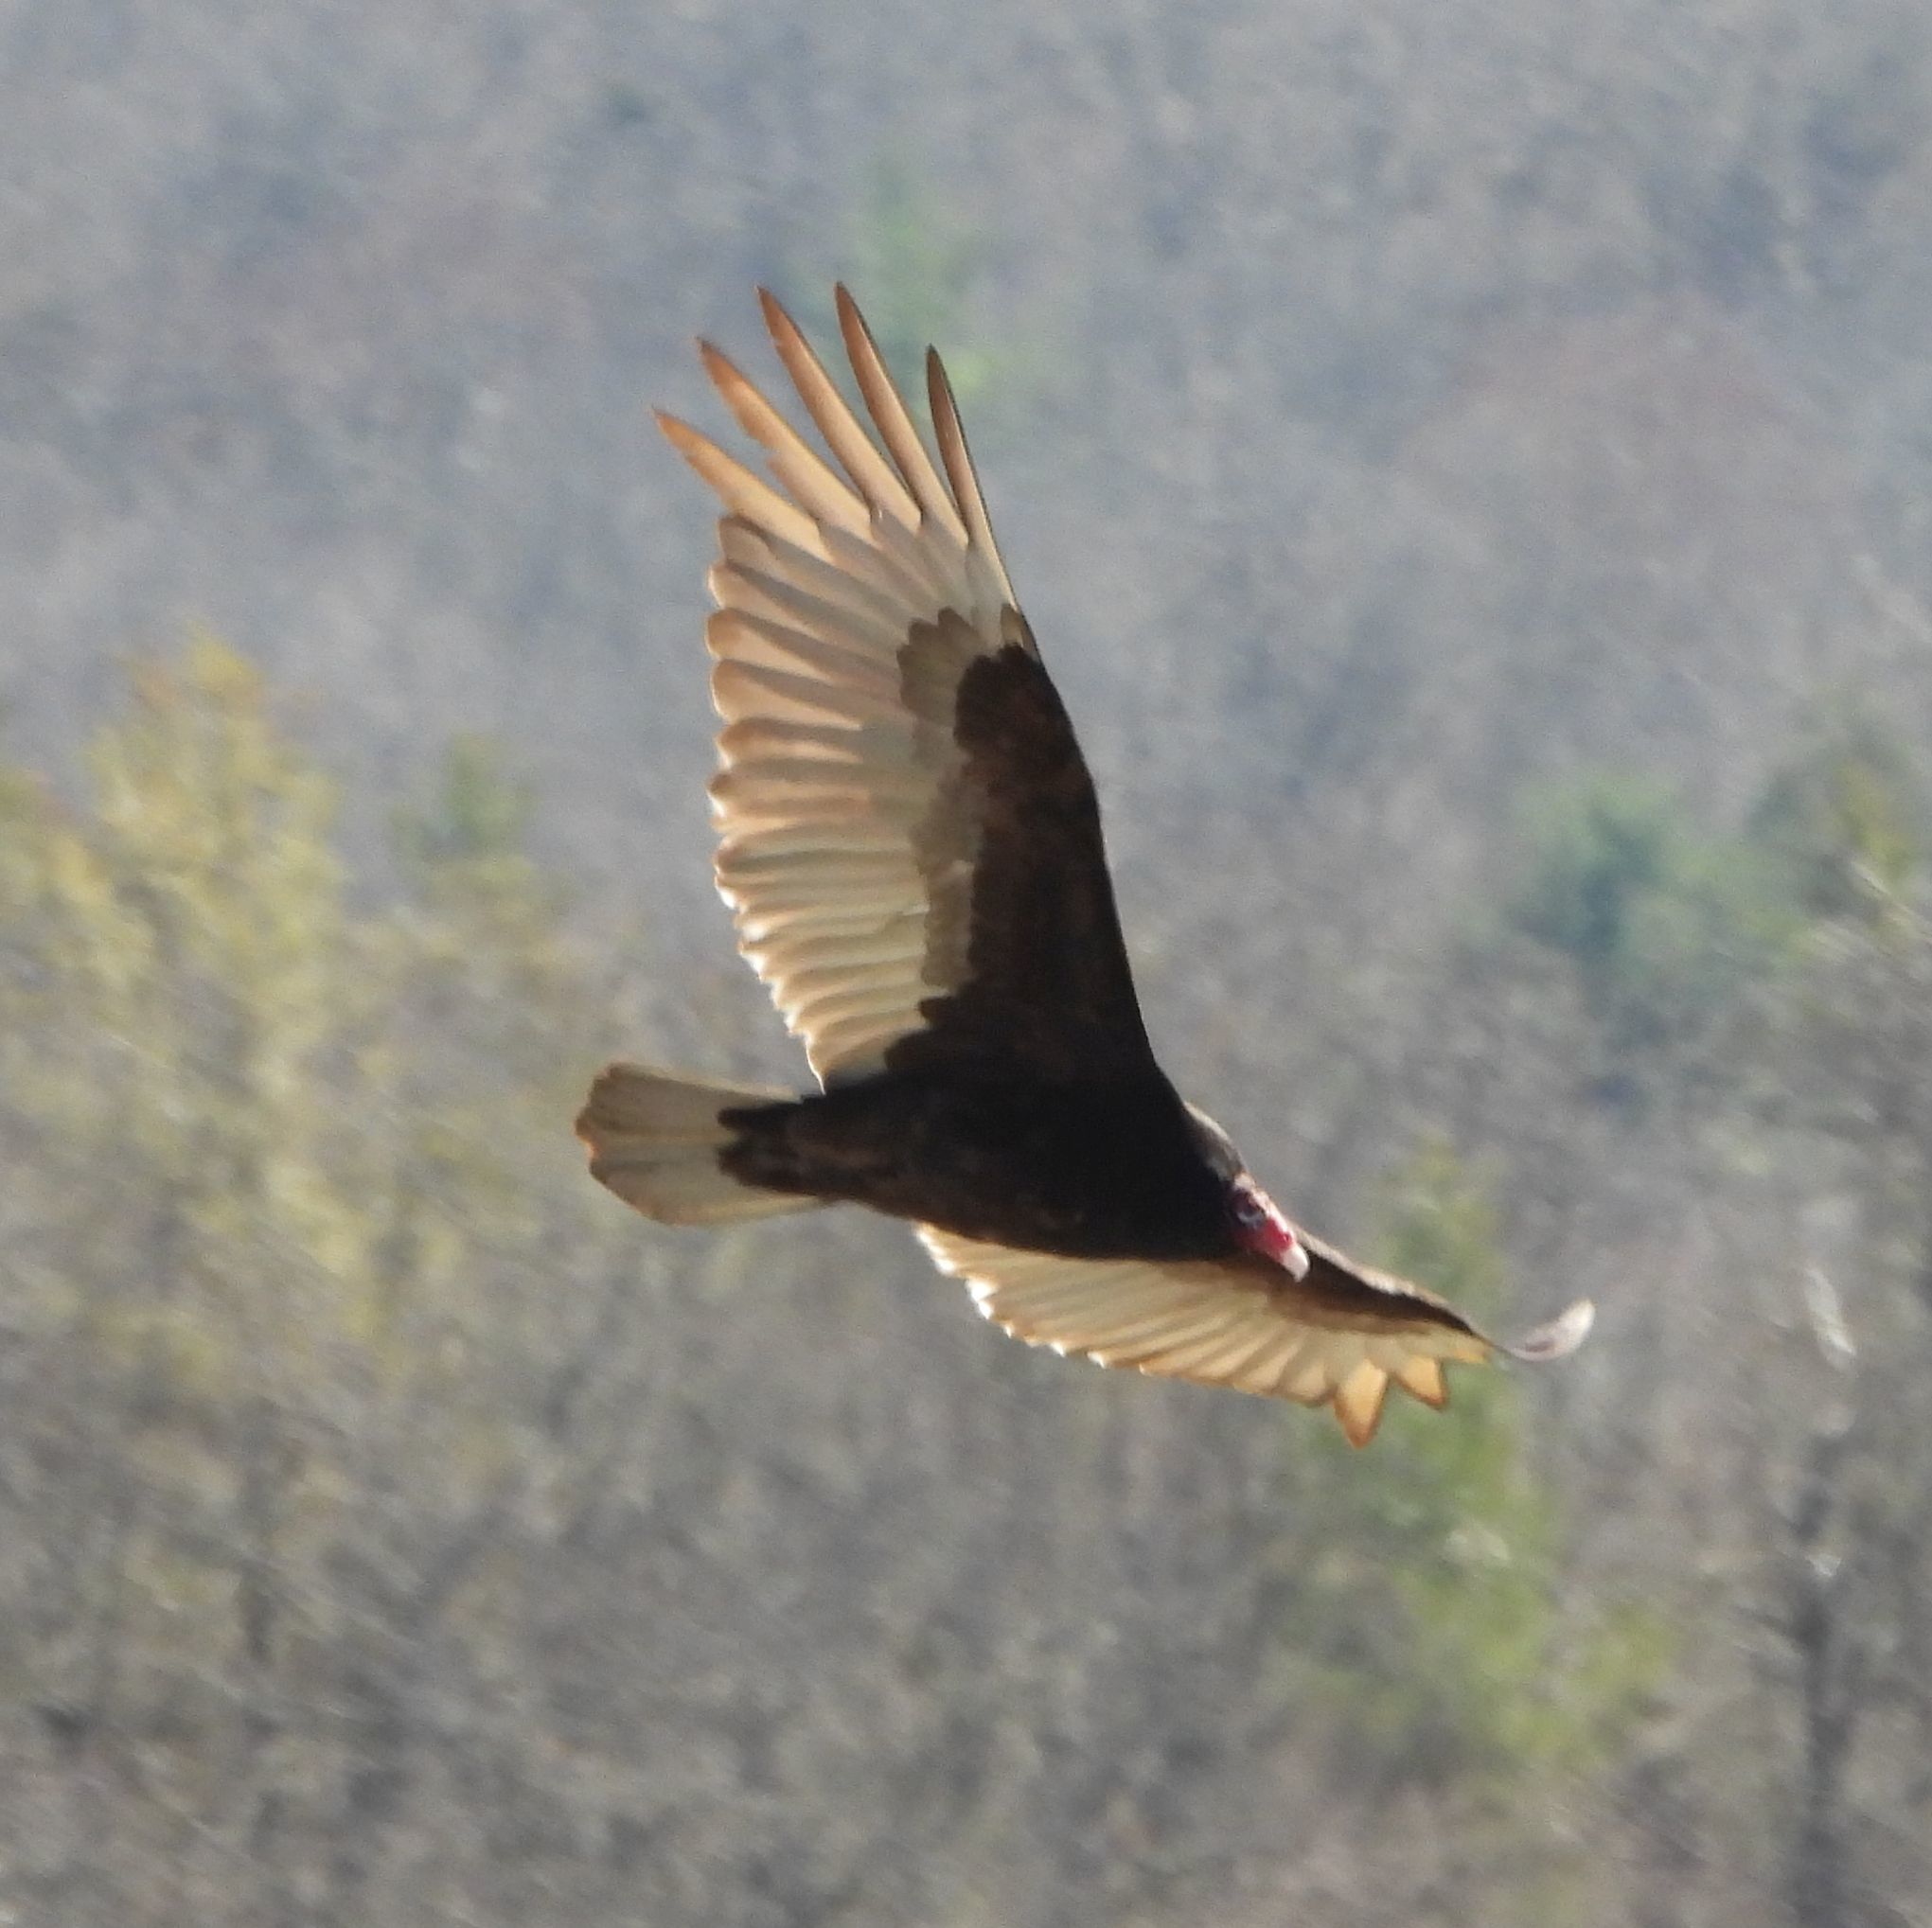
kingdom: Animalia
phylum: Chordata
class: Aves
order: Accipitriformes
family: Cathartidae
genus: Cathartes
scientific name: Cathartes aura
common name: Turkey vulture
